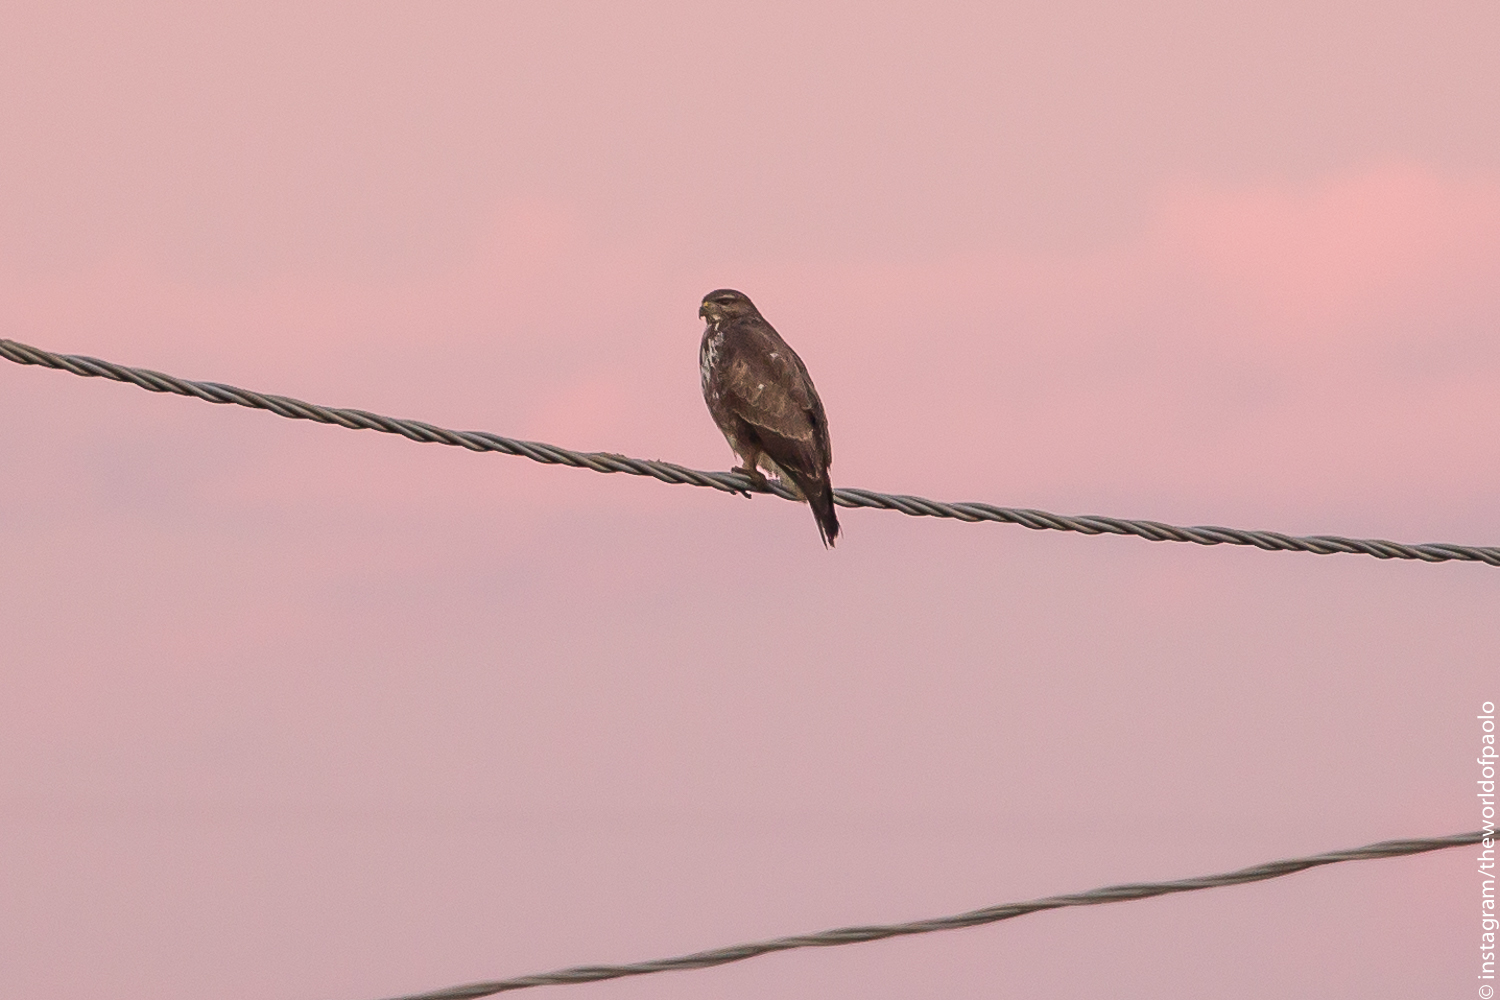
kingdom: Animalia
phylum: Chordata
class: Aves
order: Accipitriformes
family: Accipitridae
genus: Buteo
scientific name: Buteo buteo
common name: Common buzzard
